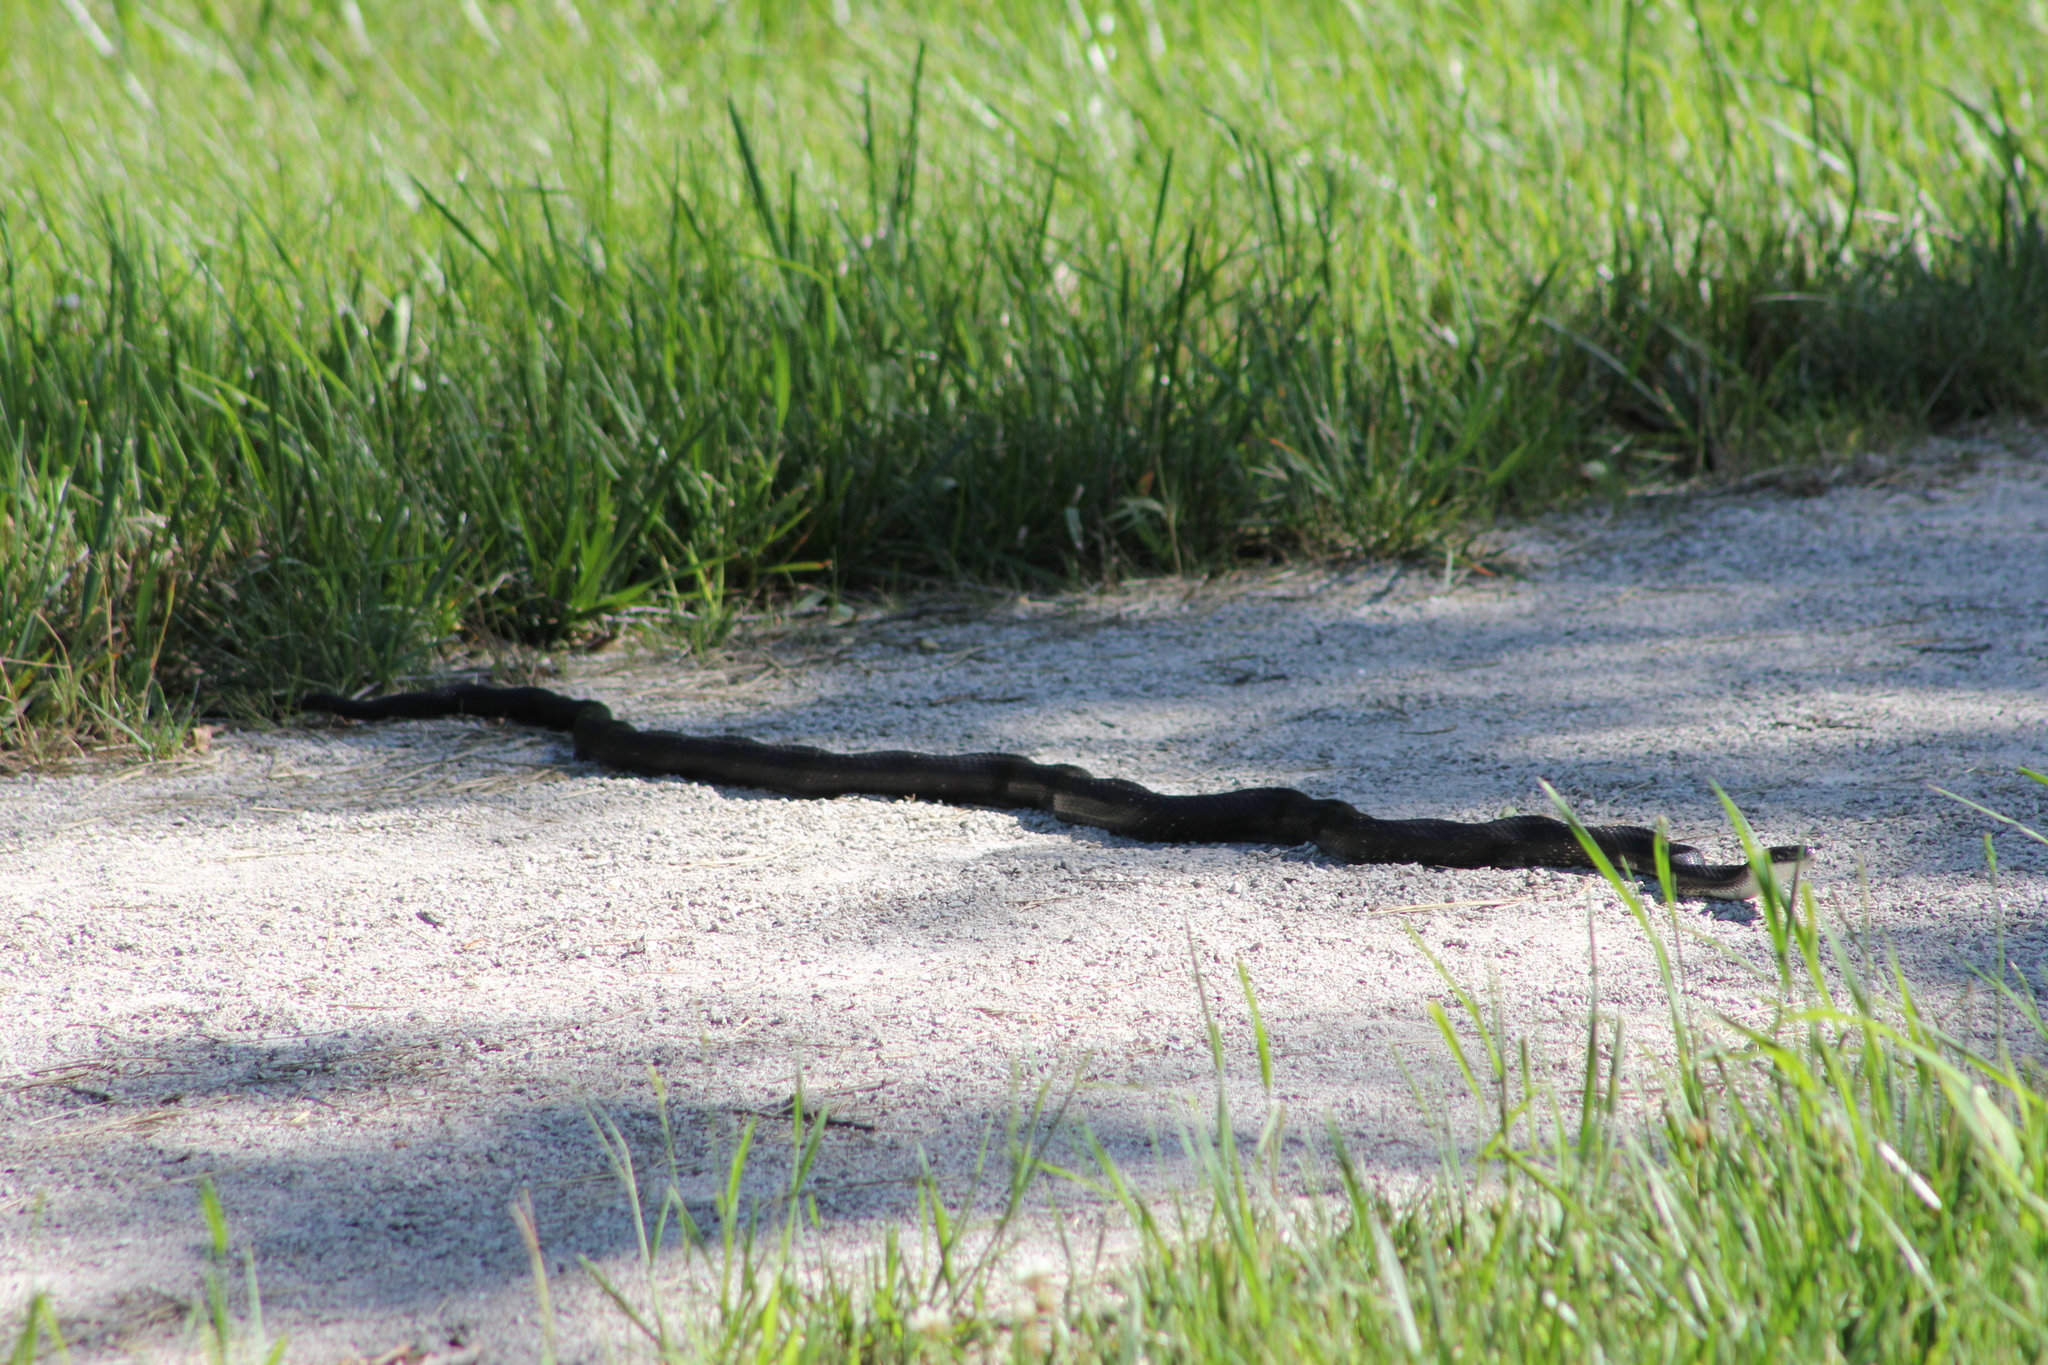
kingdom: Animalia
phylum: Chordata
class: Squamata
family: Colubridae
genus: Pantherophis
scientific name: Pantherophis spiloides
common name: Gray rat snake
